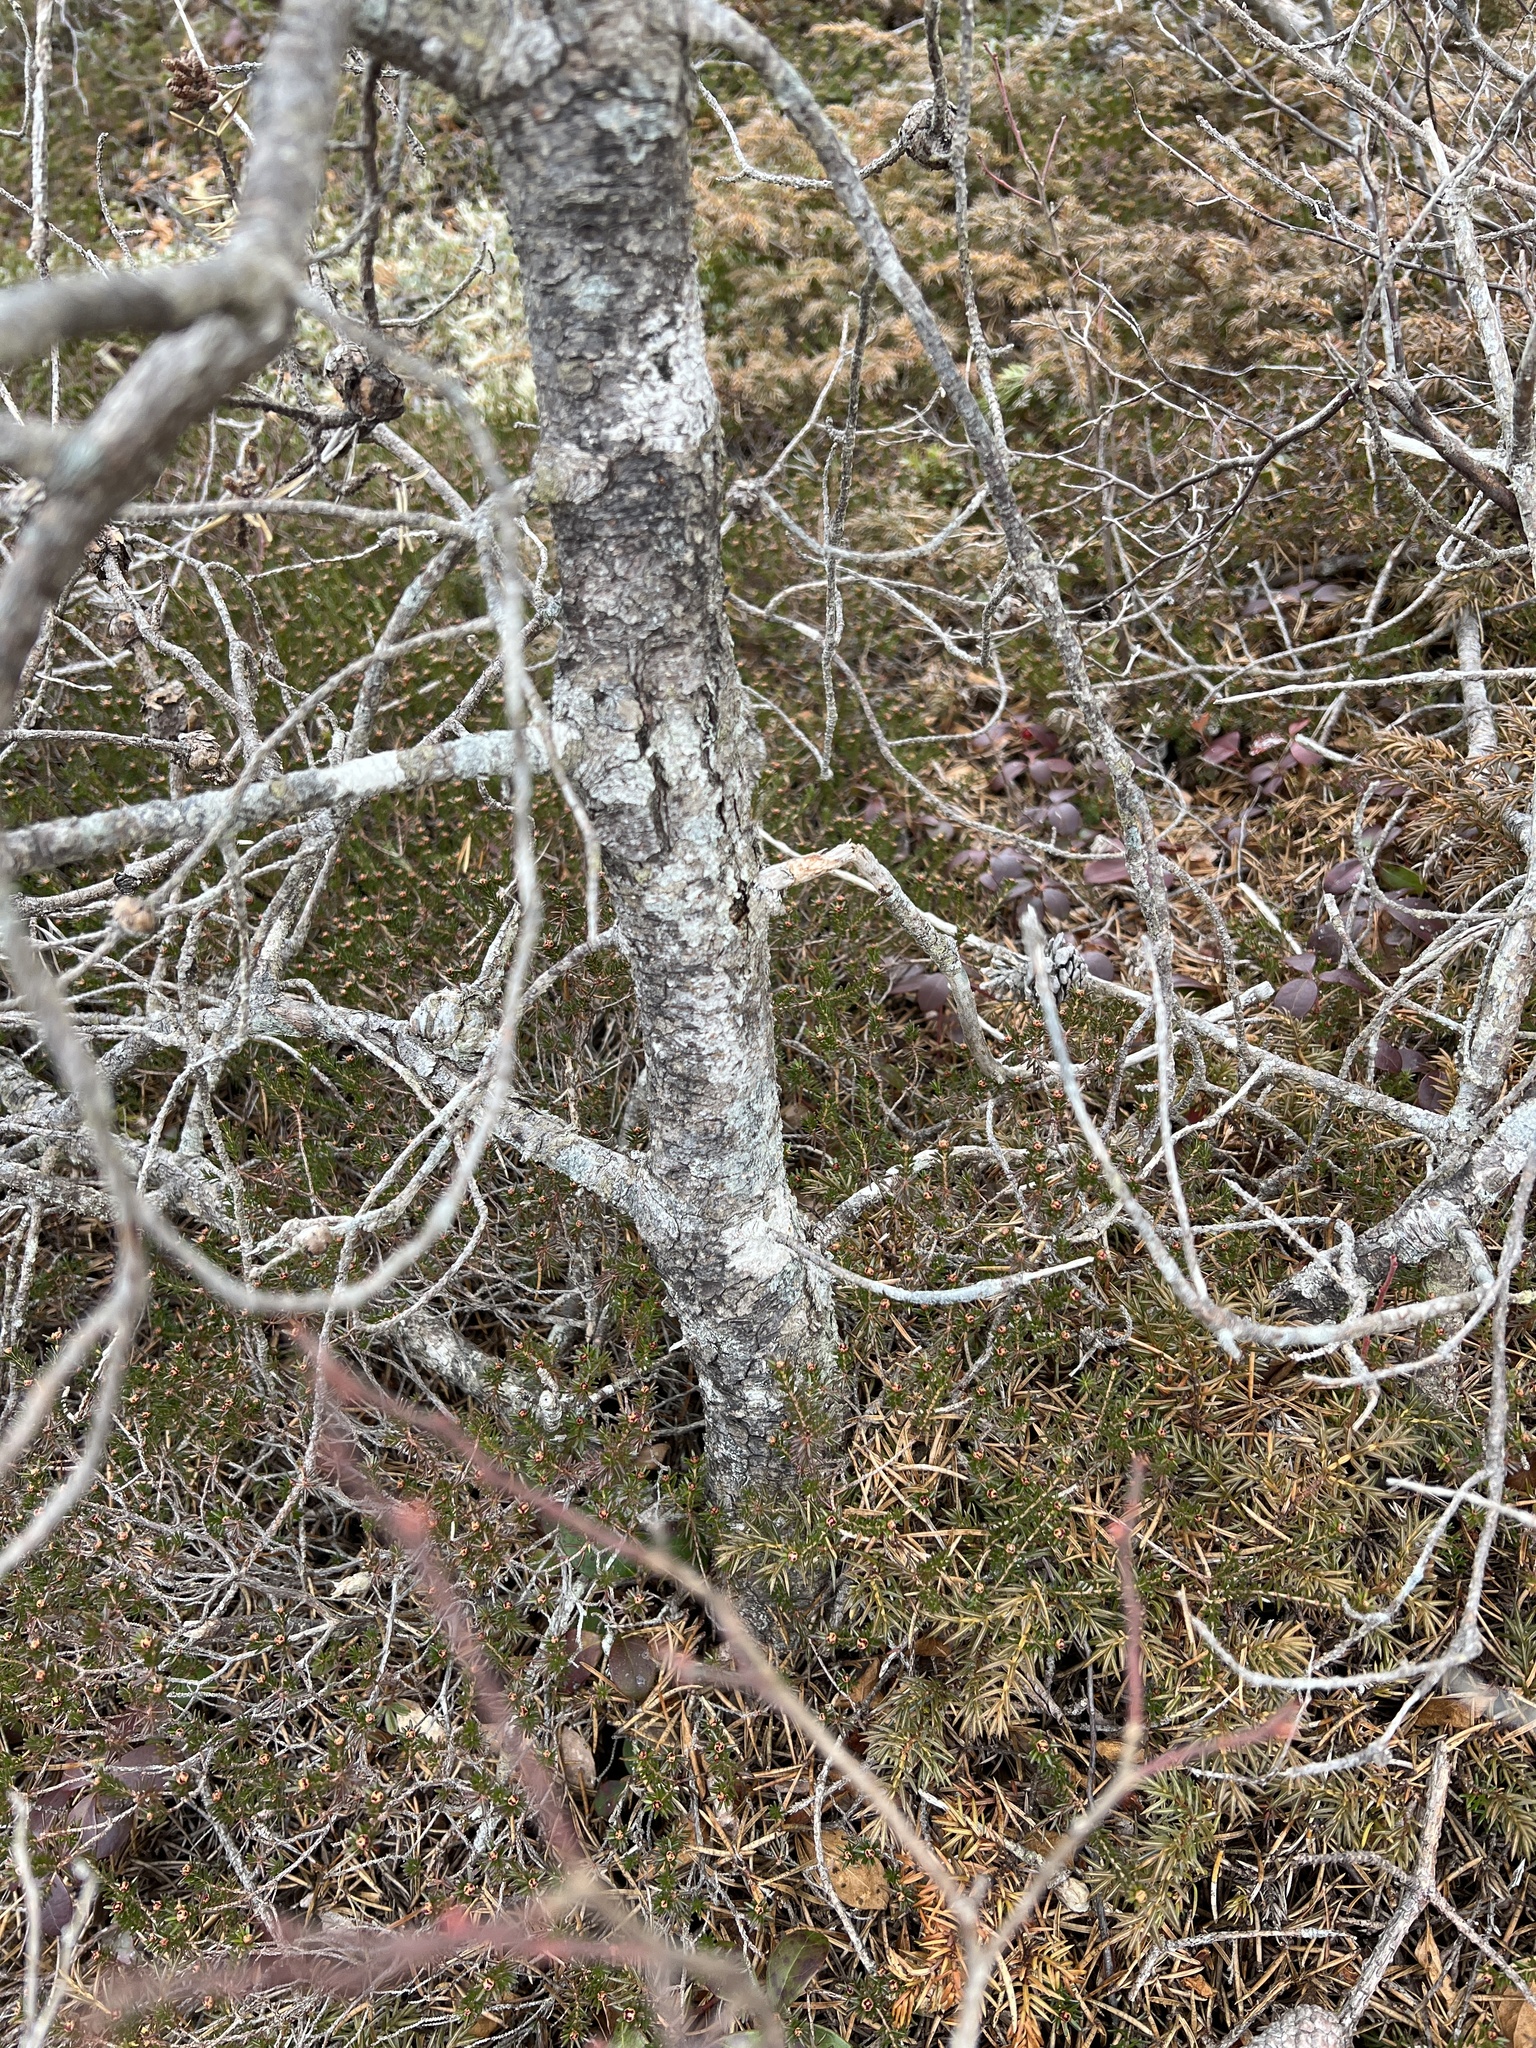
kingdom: Plantae
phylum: Tracheophyta
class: Pinopsida
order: Pinales
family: Pinaceae
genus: Pinus
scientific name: Pinus banksiana
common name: Jack pine
